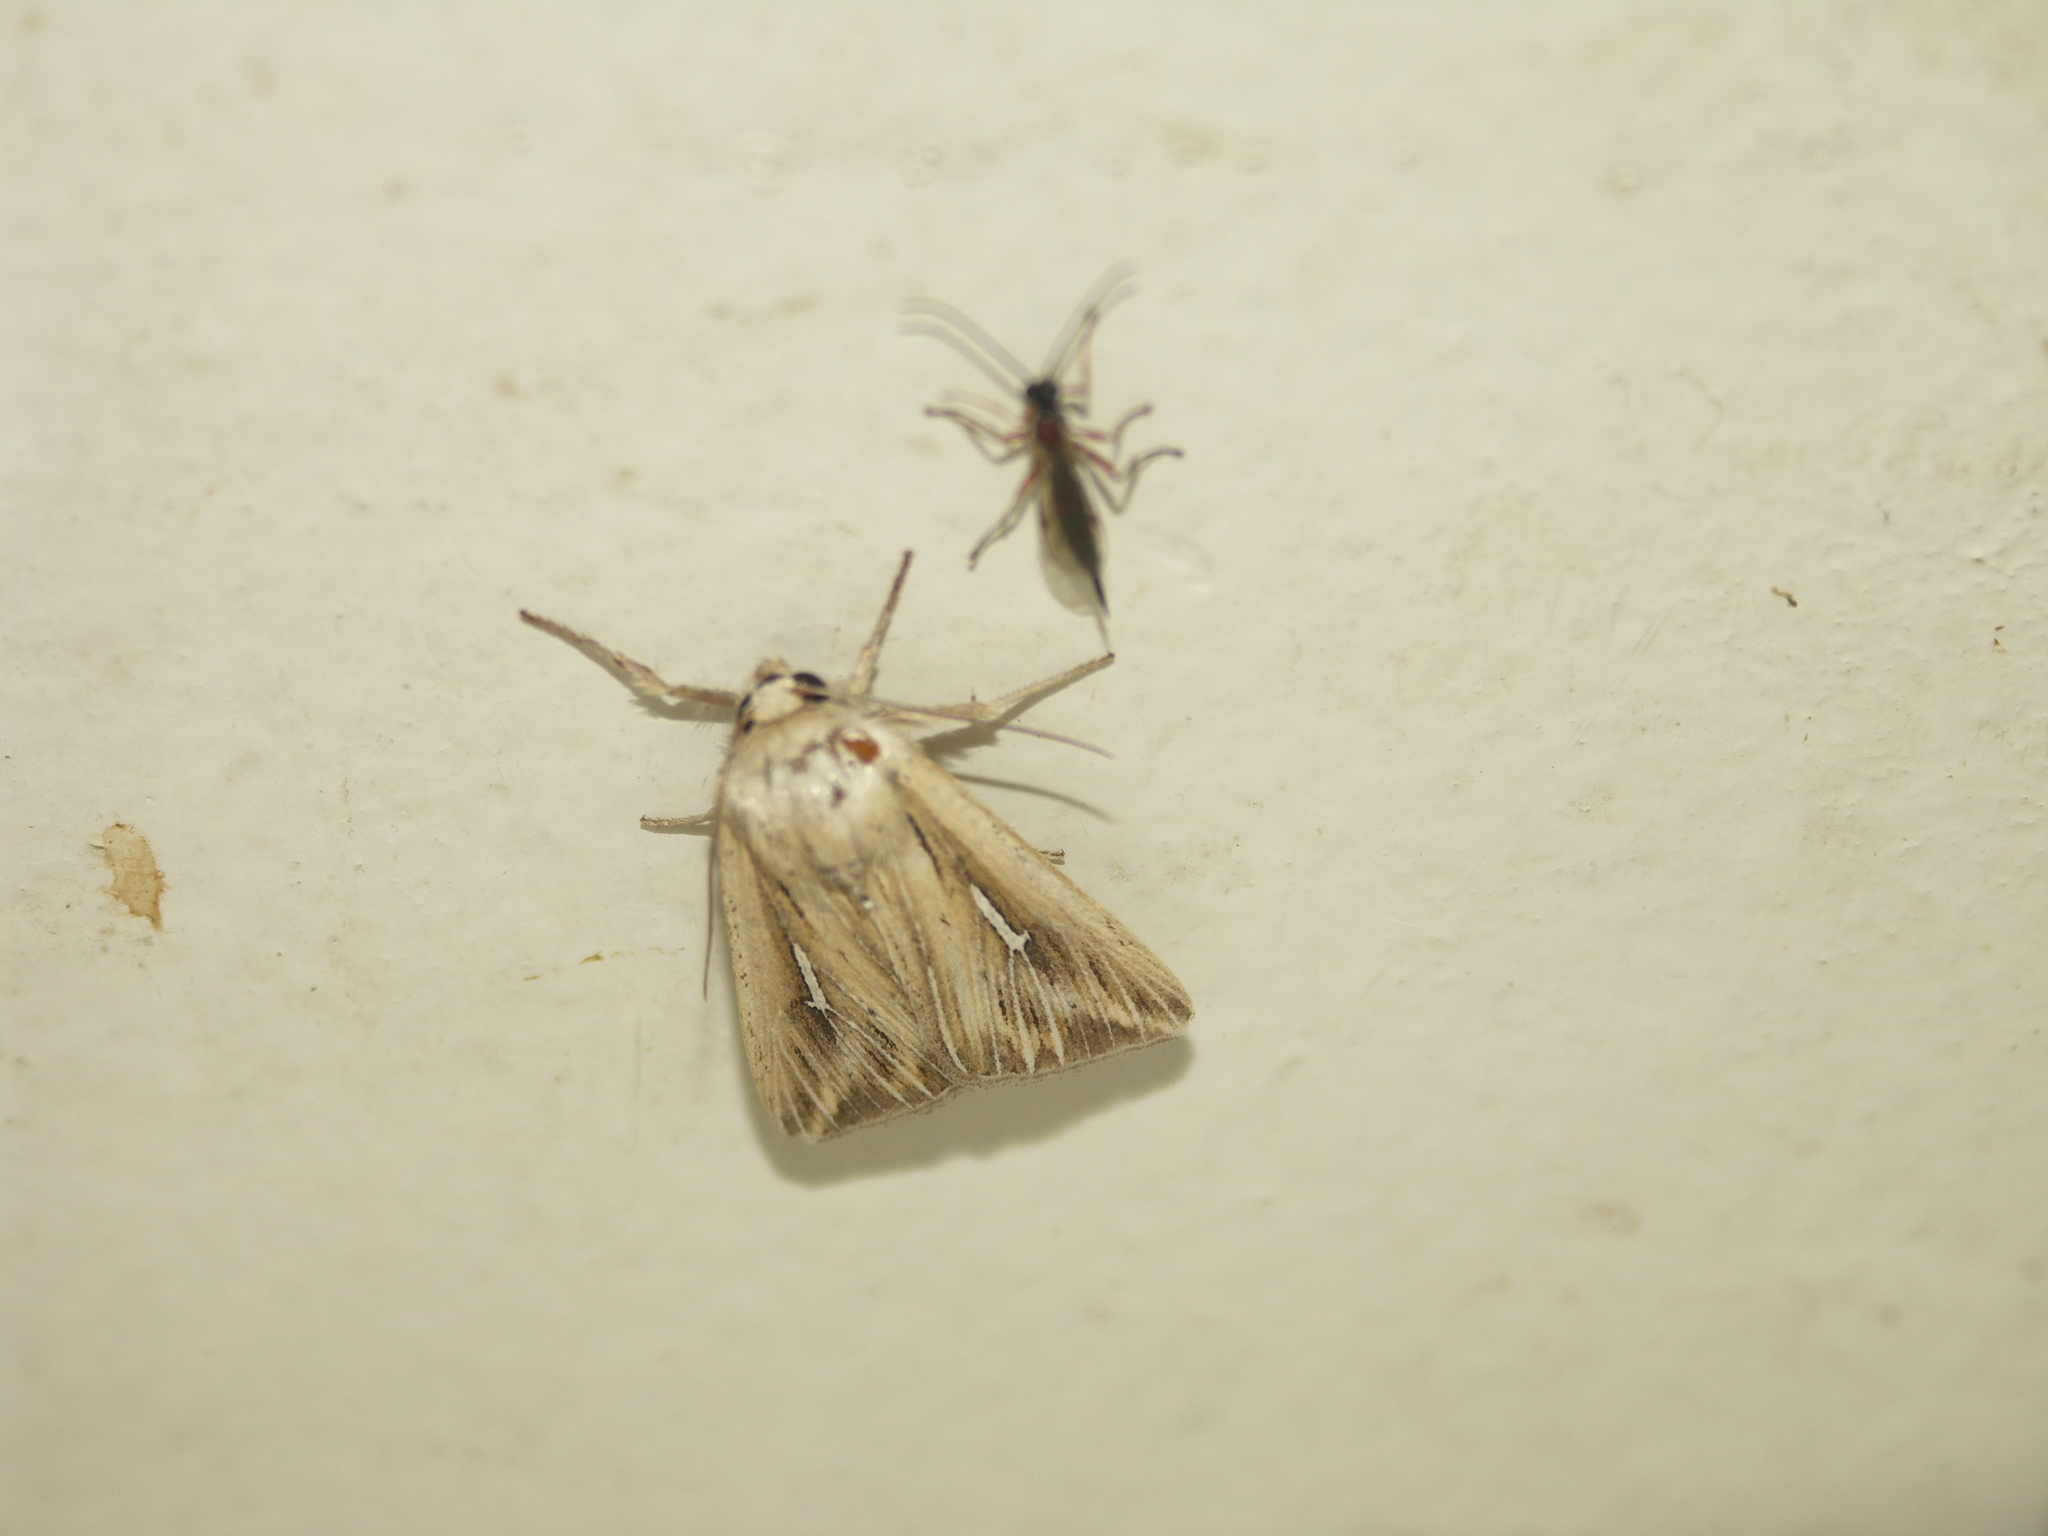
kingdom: Animalia
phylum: Arthropoda
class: Insecta
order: Lepidoptera
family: Noctuidae
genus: Mythimna
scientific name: Mythimna l-album
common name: L-album wainscot
